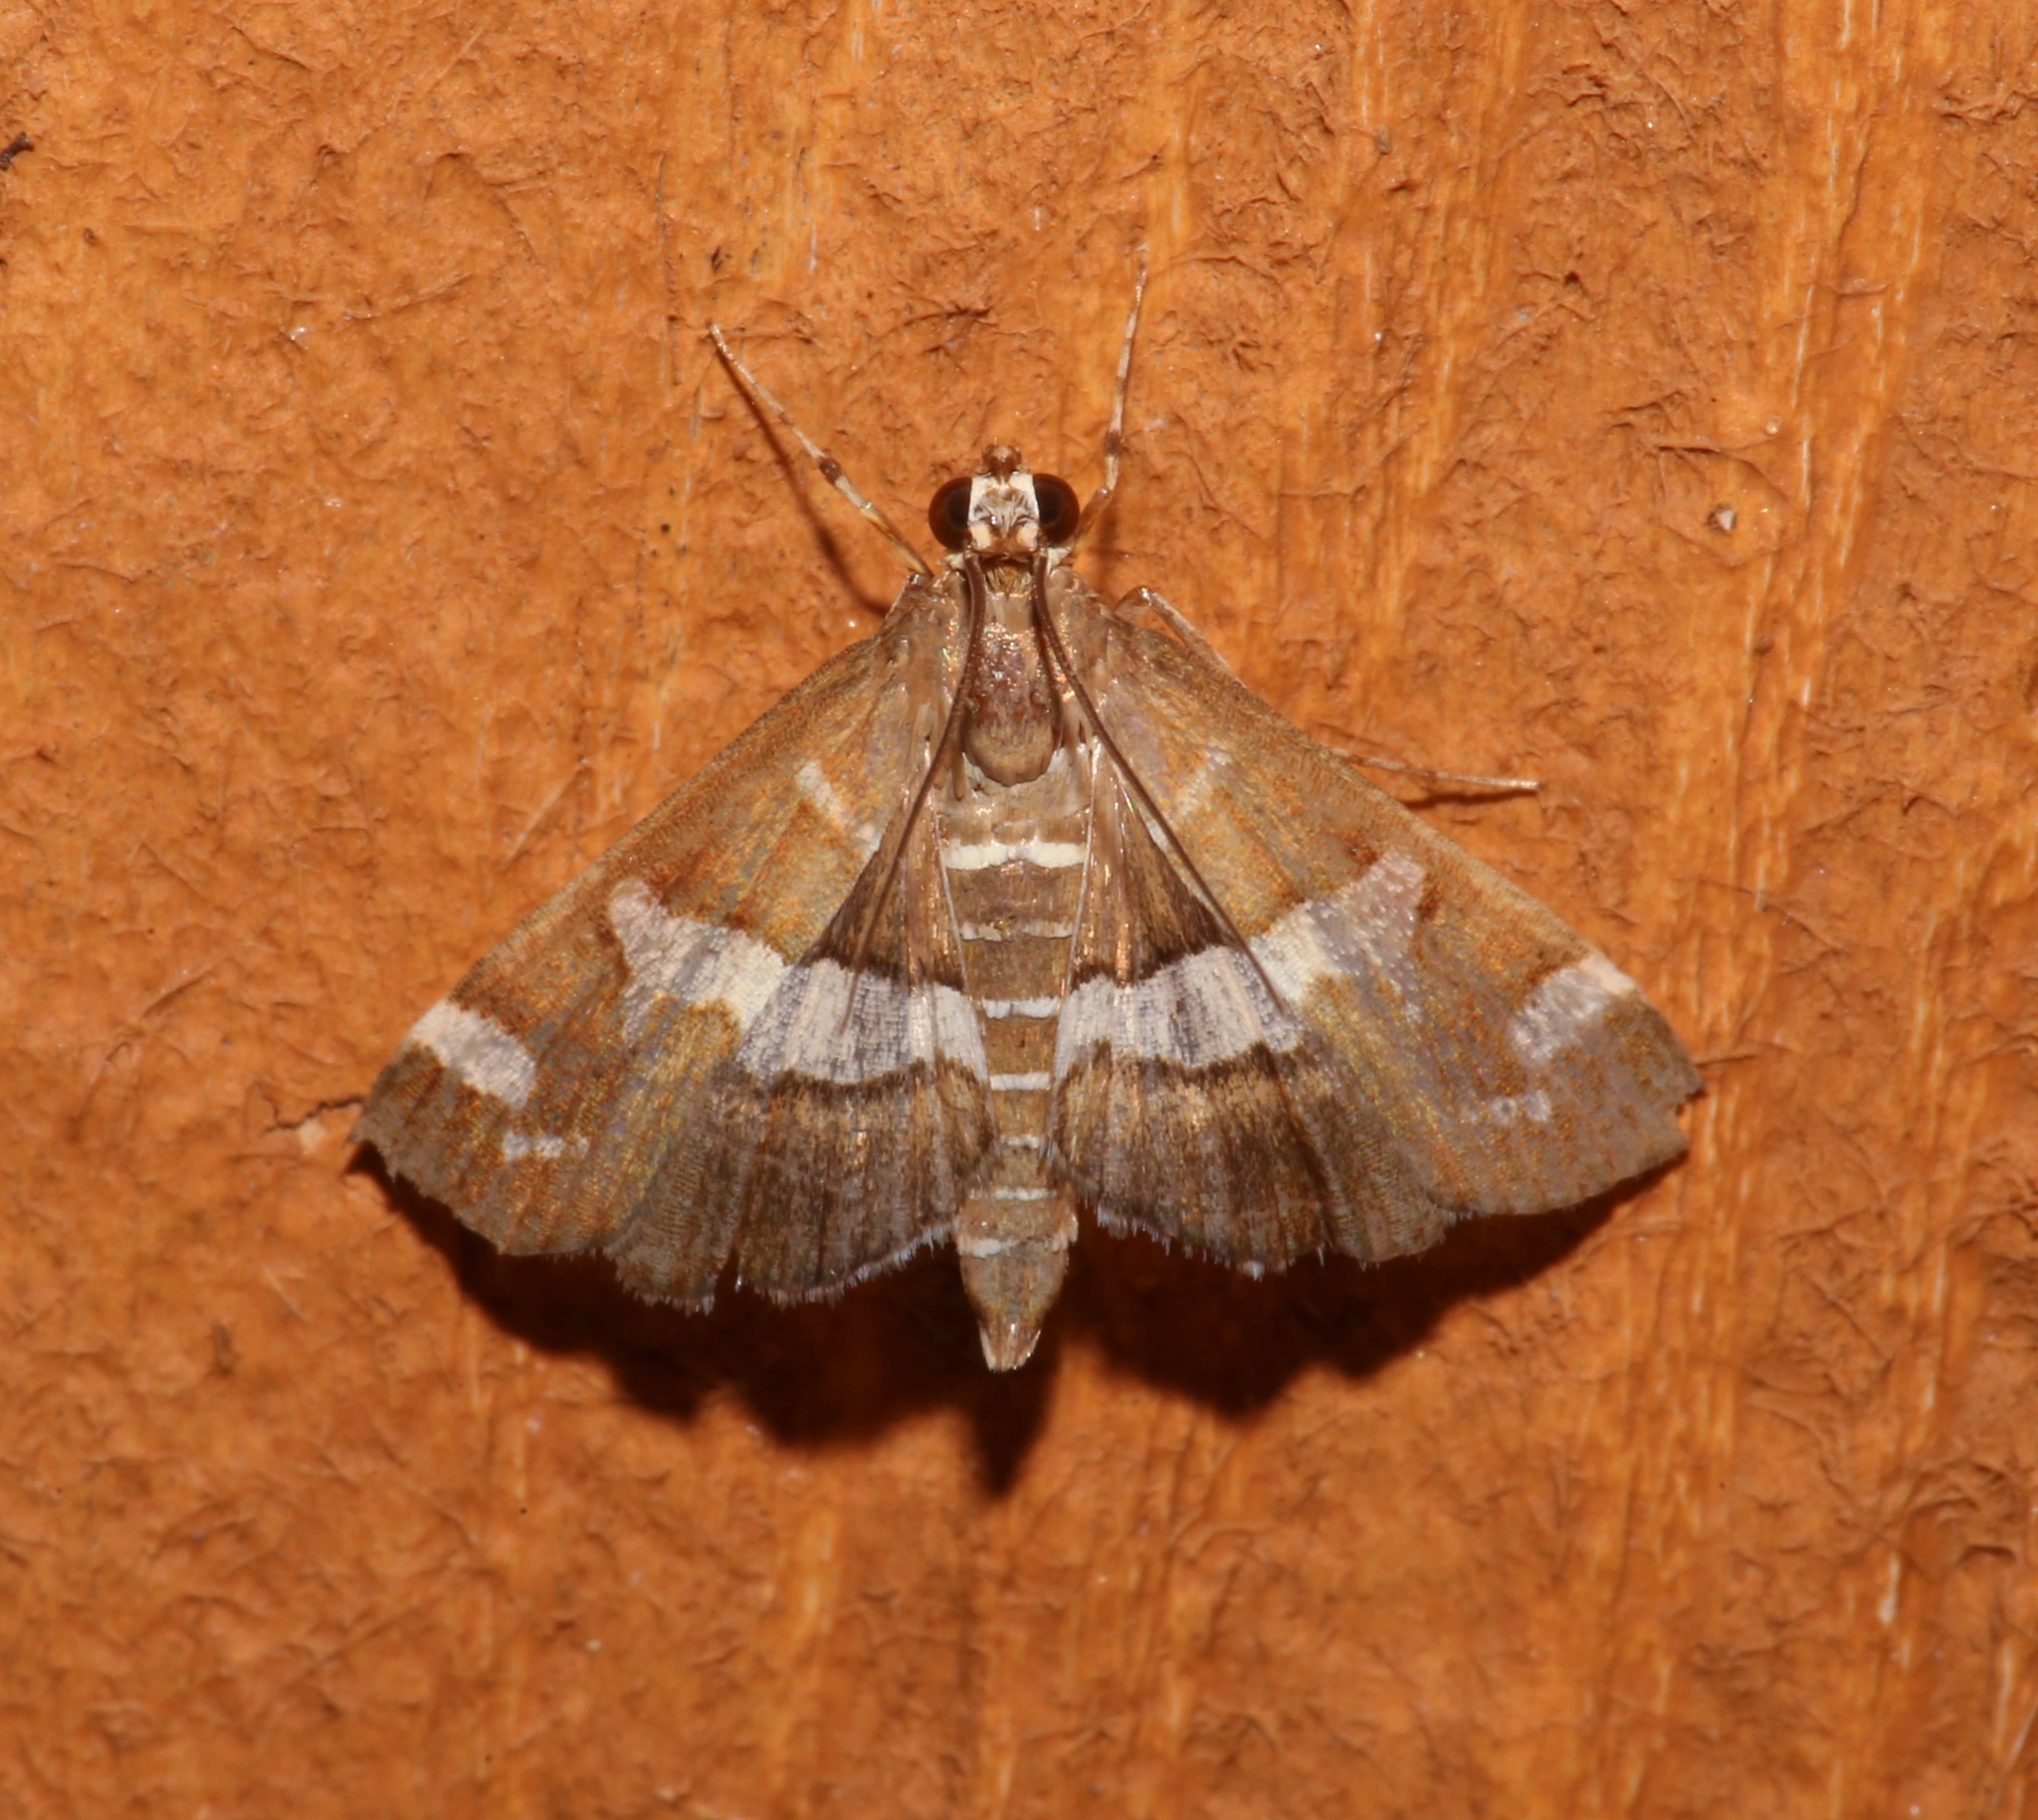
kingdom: Animalia
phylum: Arthropoda
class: Insecta
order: Lepidoptera
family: Crambidae
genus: Spoladea
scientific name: Spoladea recurvalis
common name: Beet webworm moth
